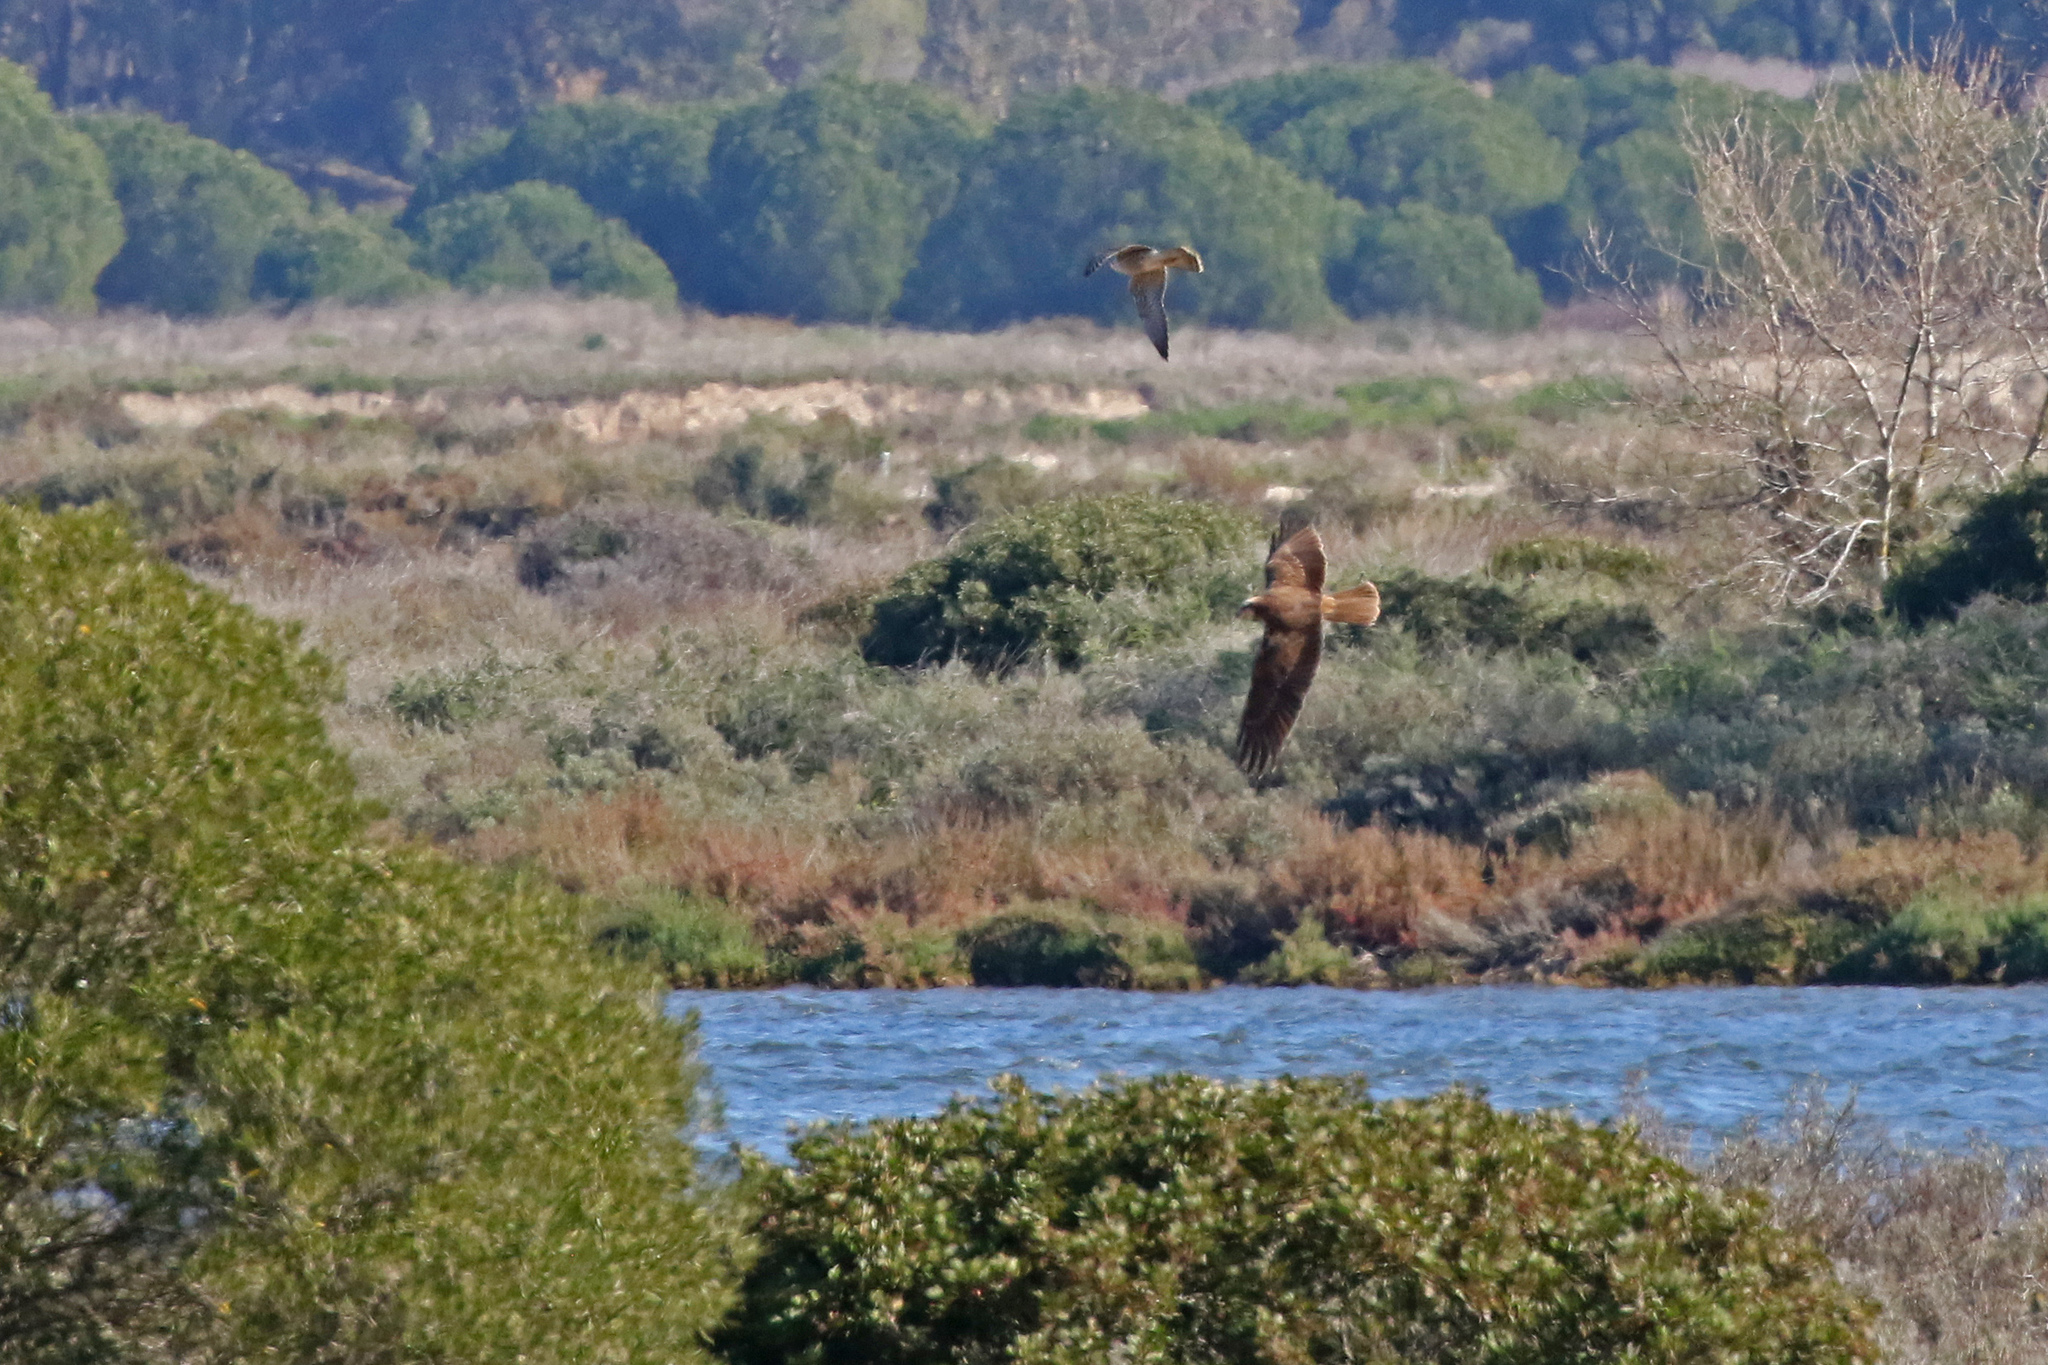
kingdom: Animalia
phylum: Chordata
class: Aves
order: Falconiformes
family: Falconidae
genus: Falco
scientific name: Falco peregrinus
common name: Peregrine falcon
